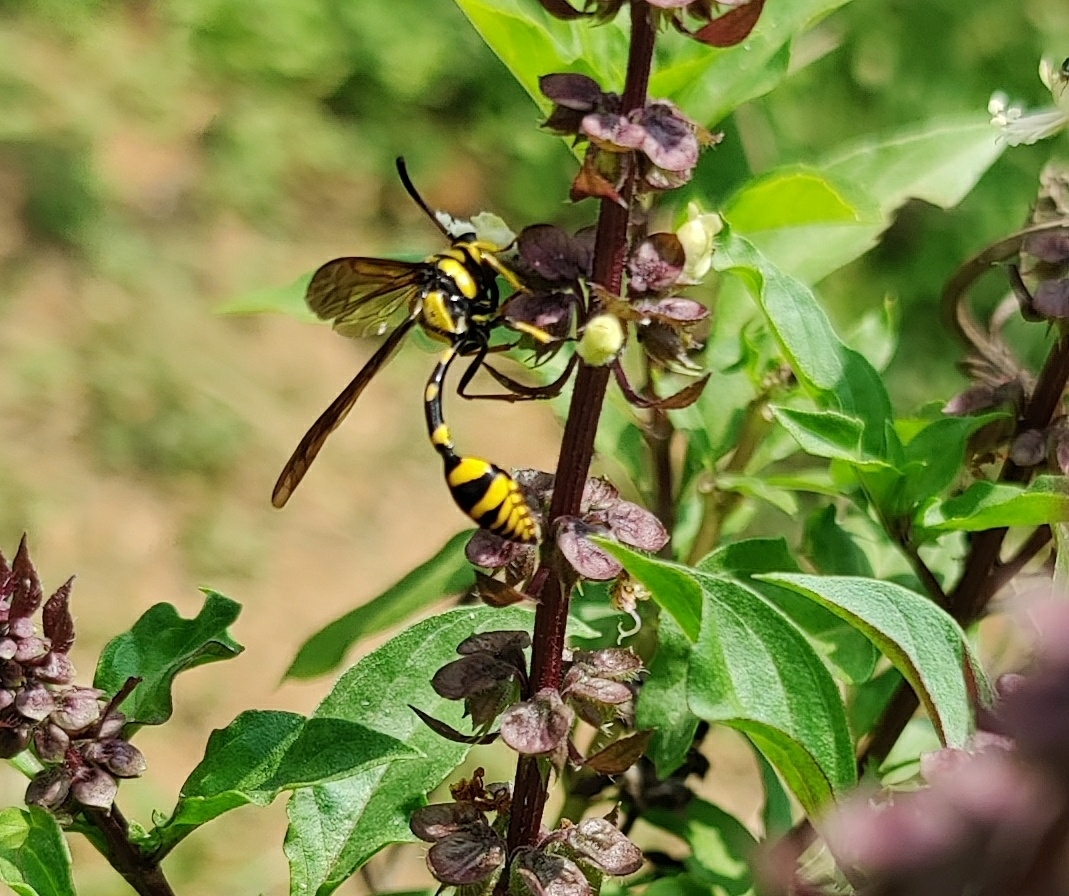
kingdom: Animalia
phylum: Arthropoda
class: Insecta
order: Hymenoptera
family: Eumenidae
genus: Phimenes
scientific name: Phimenes flavopictus
